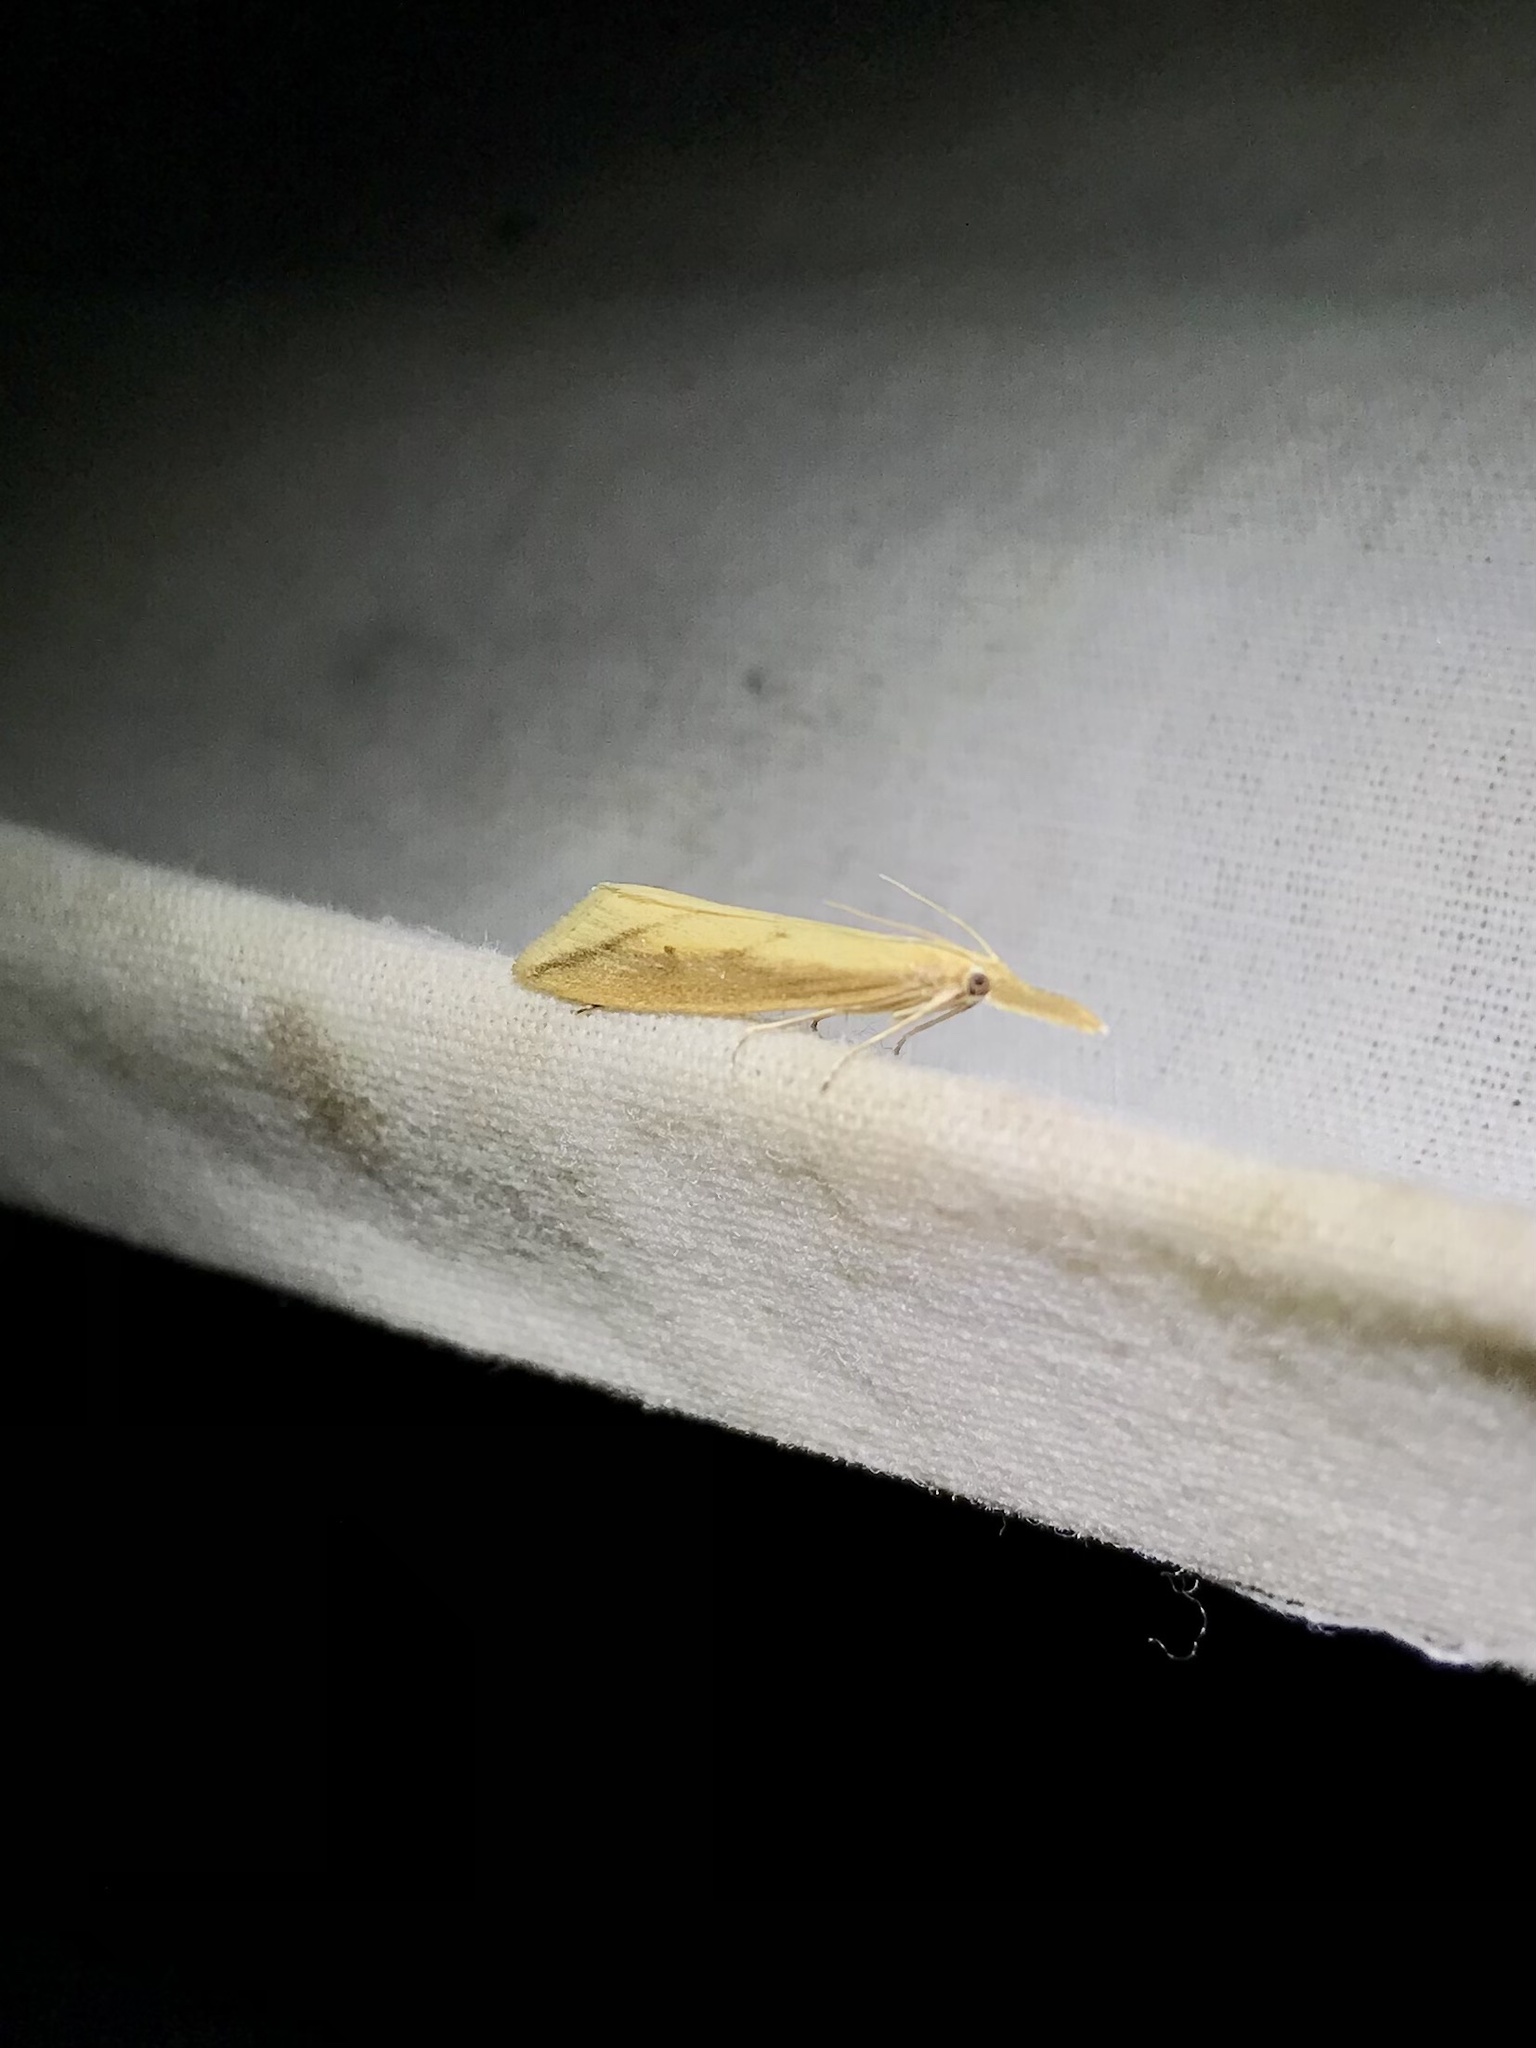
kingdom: Animalia
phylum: Arthropoda
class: Insecta
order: Lepidoptera
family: Crambidae
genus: Donacaula
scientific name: Donacaula melinellus
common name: Delightful donacaula moth
